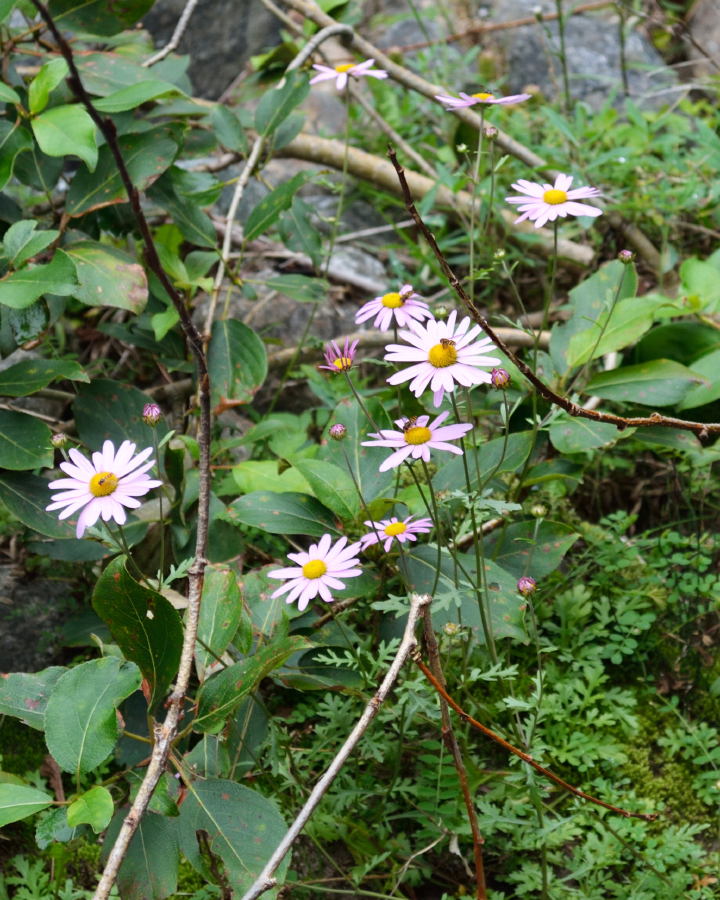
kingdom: Plantae
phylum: Tracheophyta
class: Magnoliopsida
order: Asterales
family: Asteraceae
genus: Chrysanthemum
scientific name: Chrysanthemum zawadzkii
